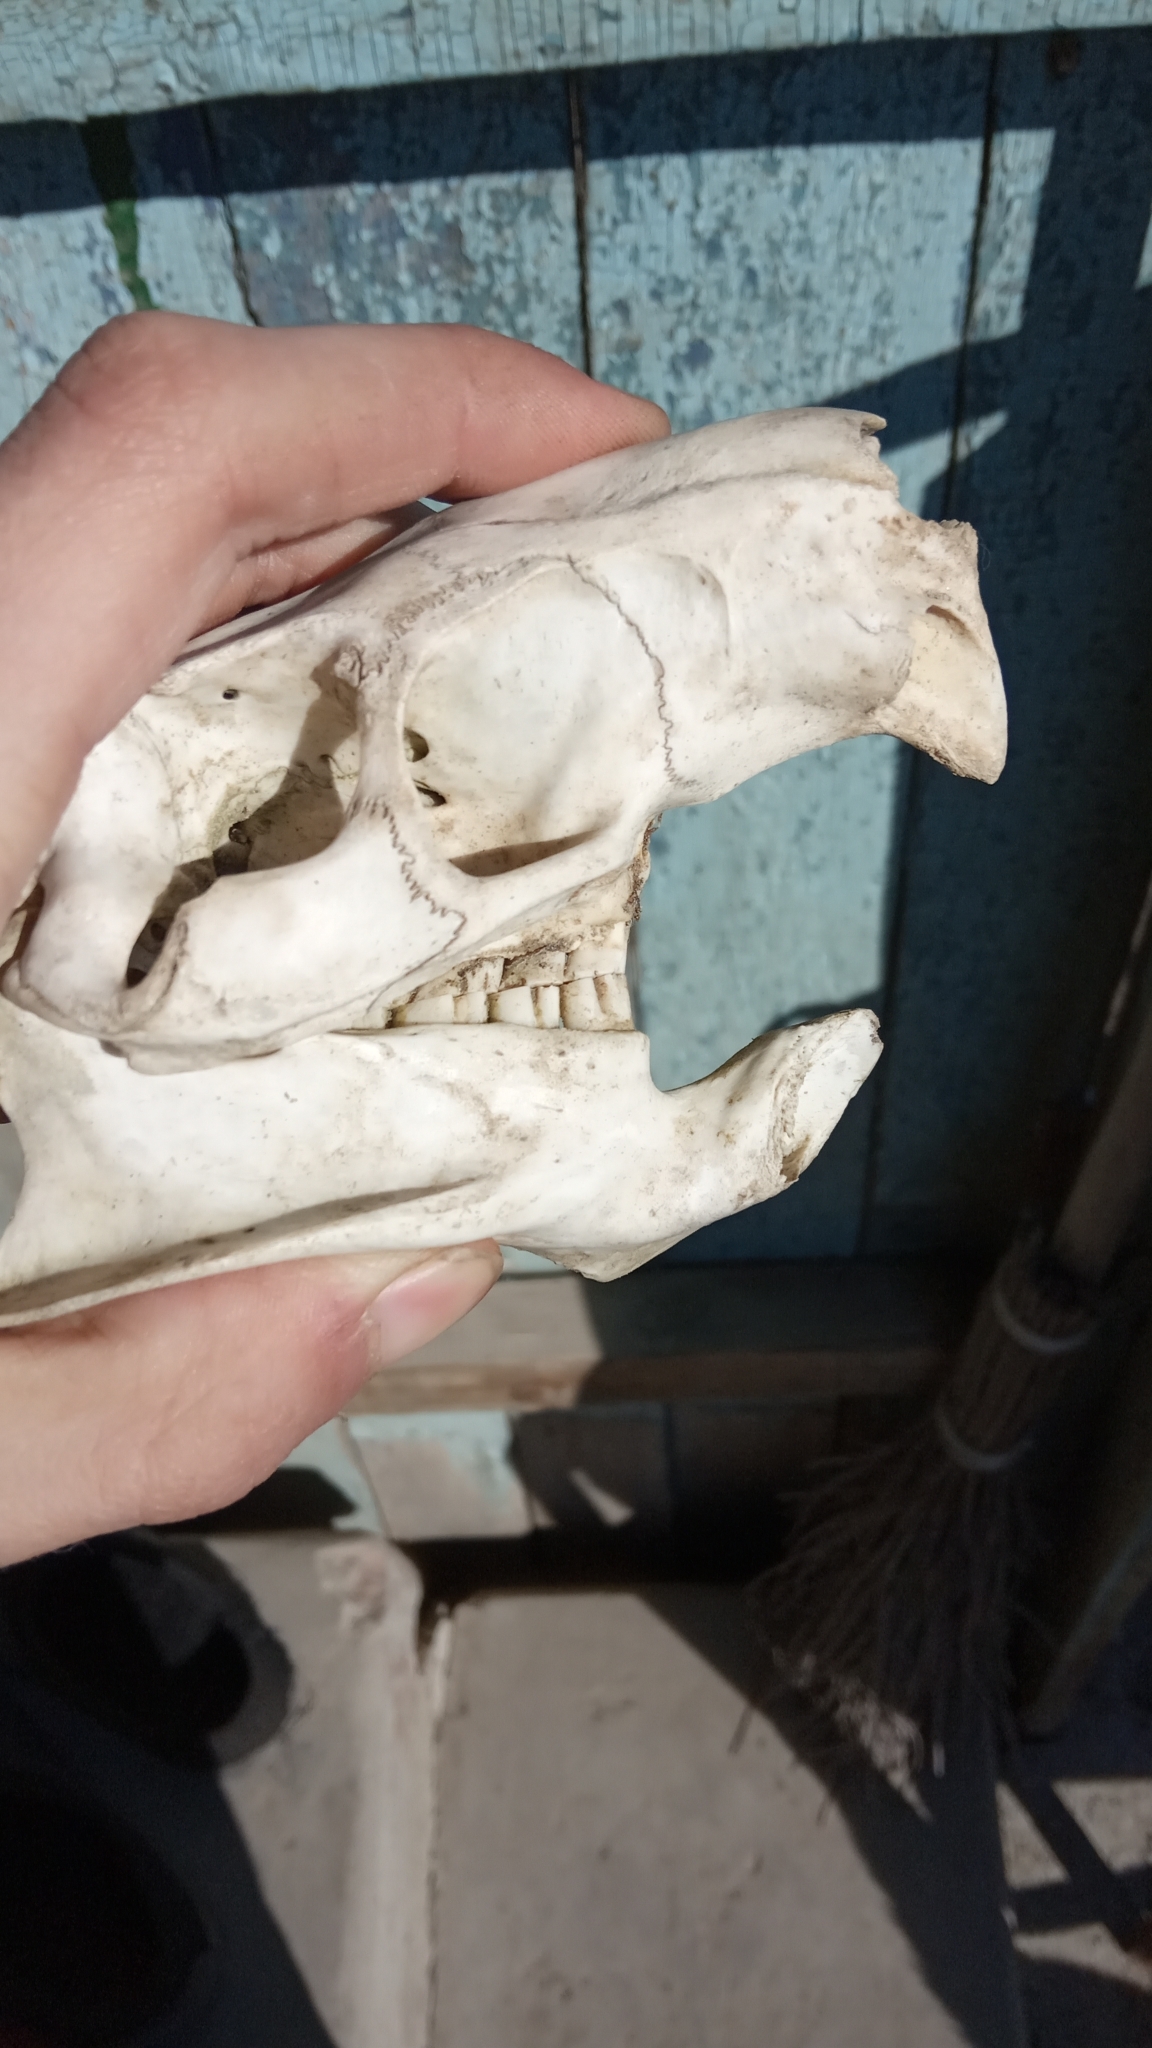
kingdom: Animalia
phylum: Chordata
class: Mammalia
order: Rodentia
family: Myocastoridae
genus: Myocastor
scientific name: Myocastor coypus
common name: Coypu
